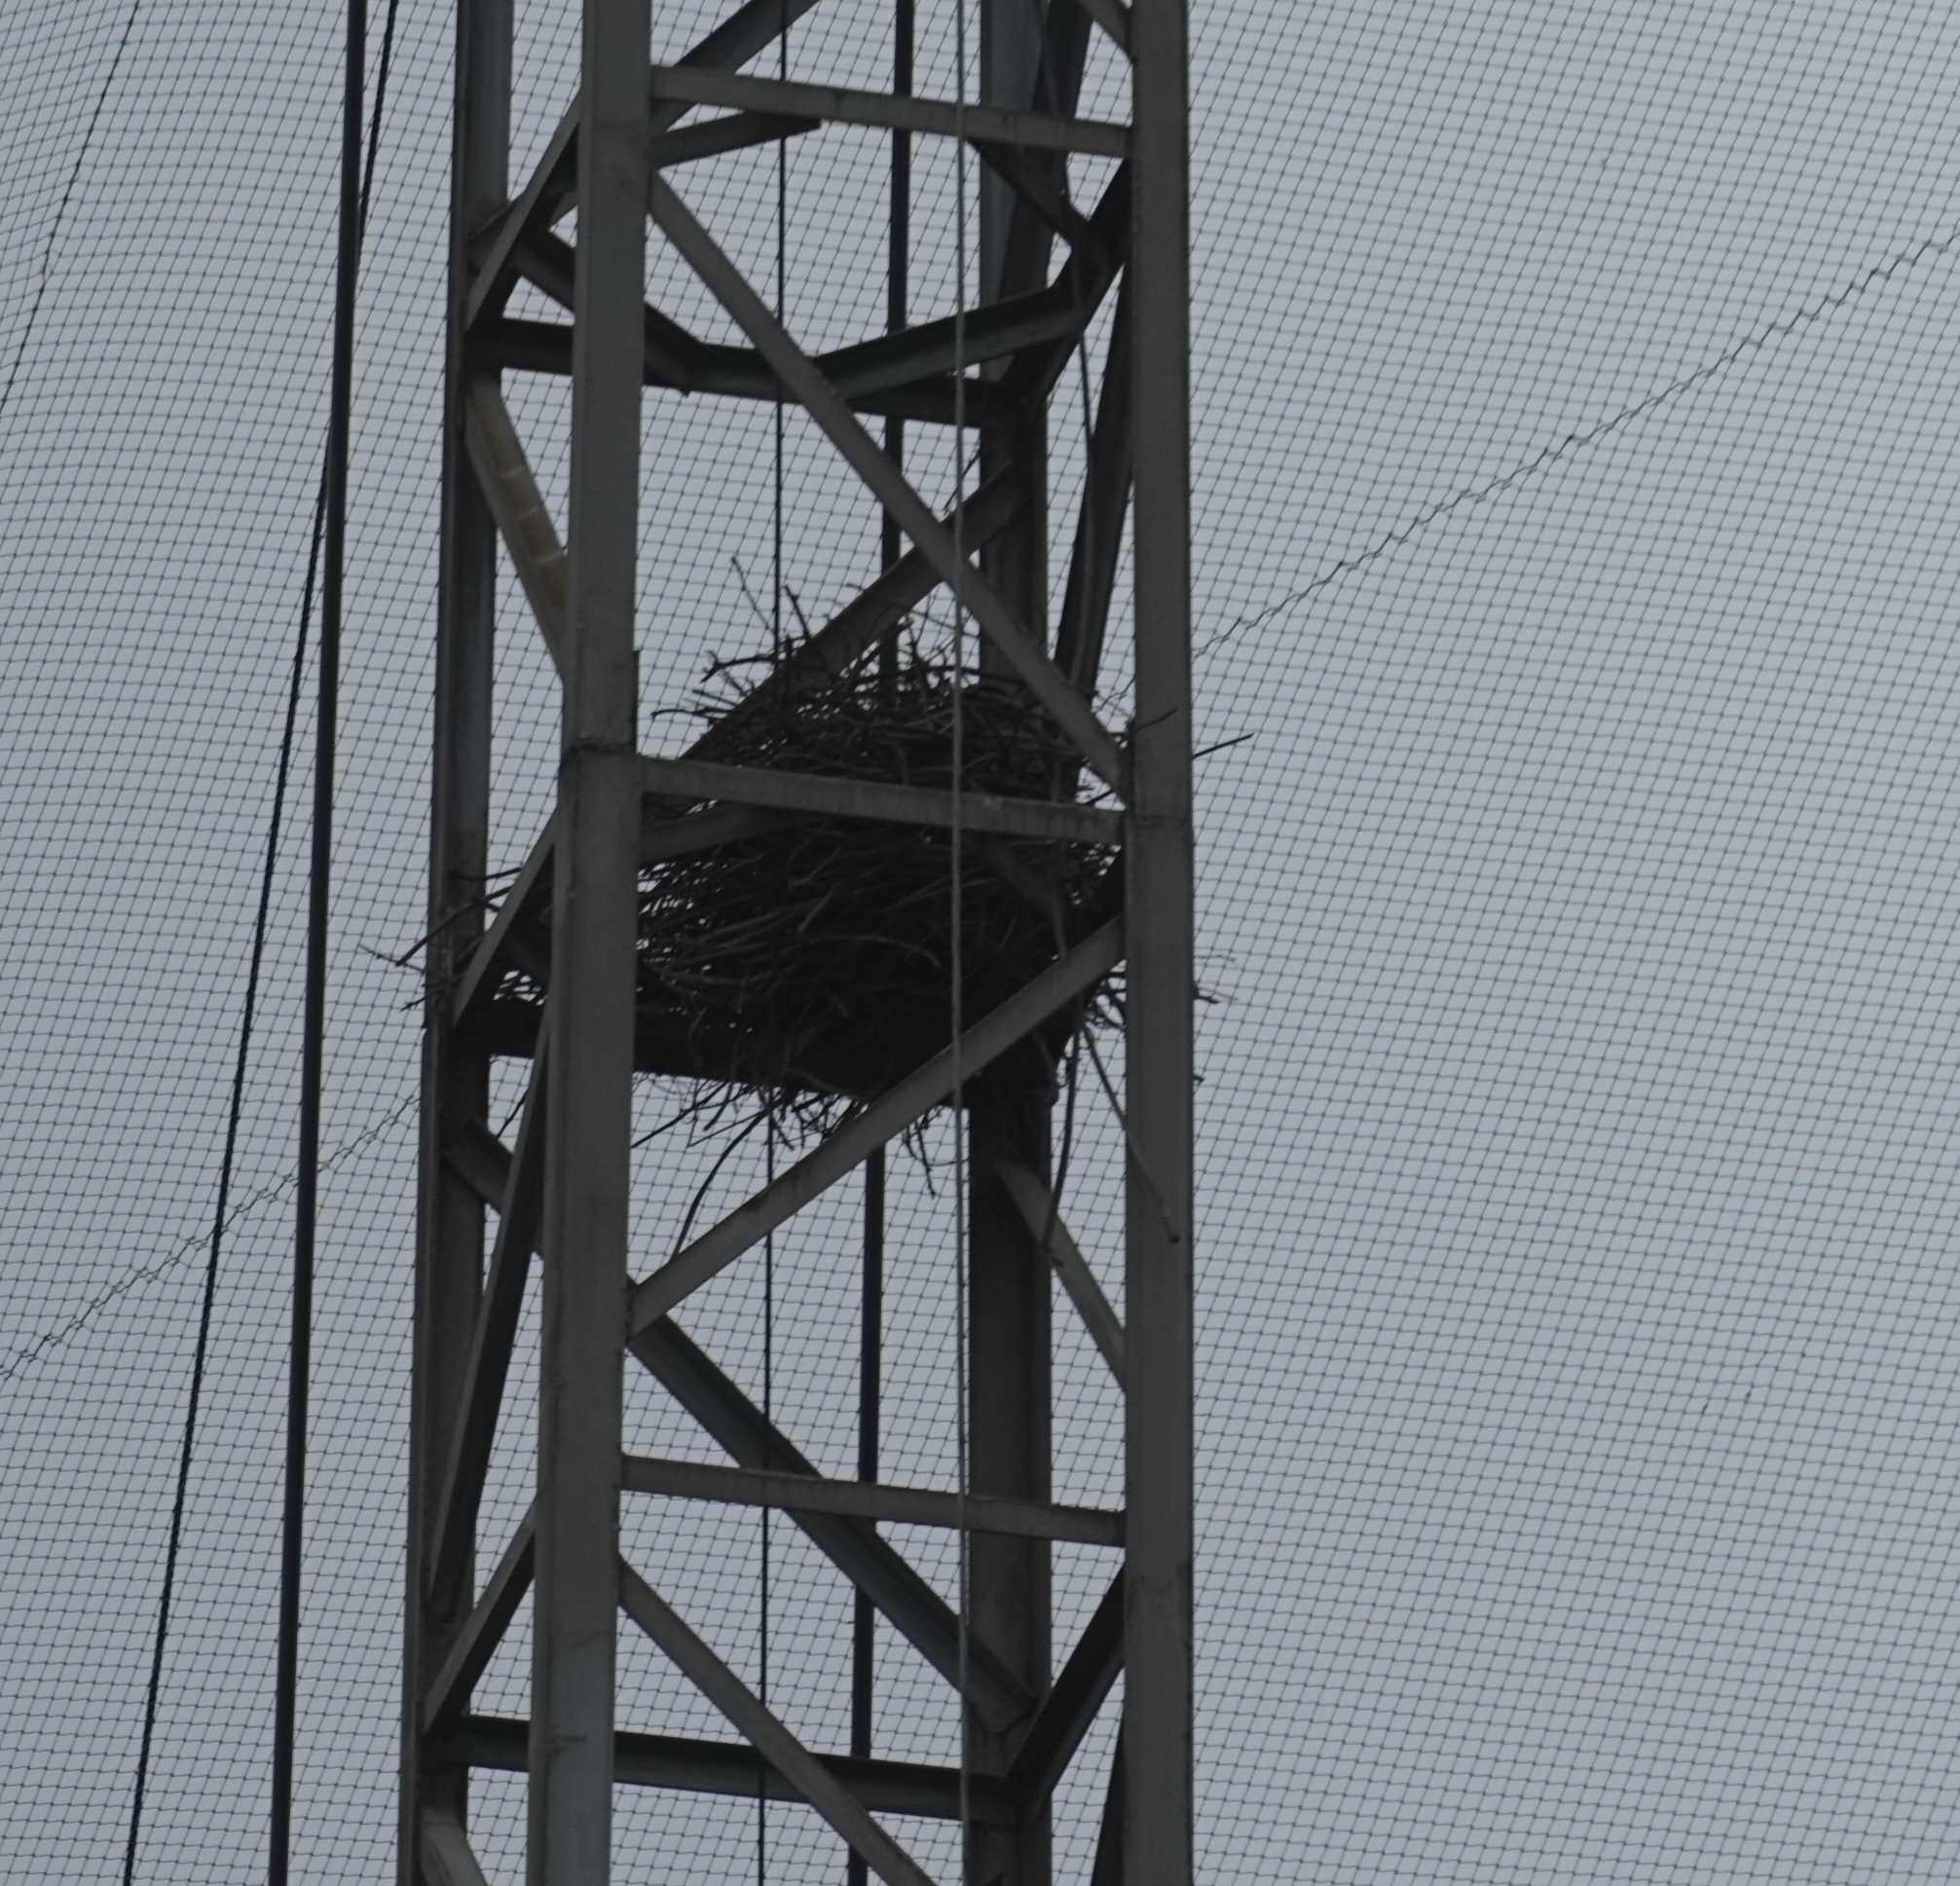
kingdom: Animalia
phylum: Chordata
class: Aves
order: Passeriformes
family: Corvidae
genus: Pica
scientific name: Pica serica
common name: Oriental magpie
